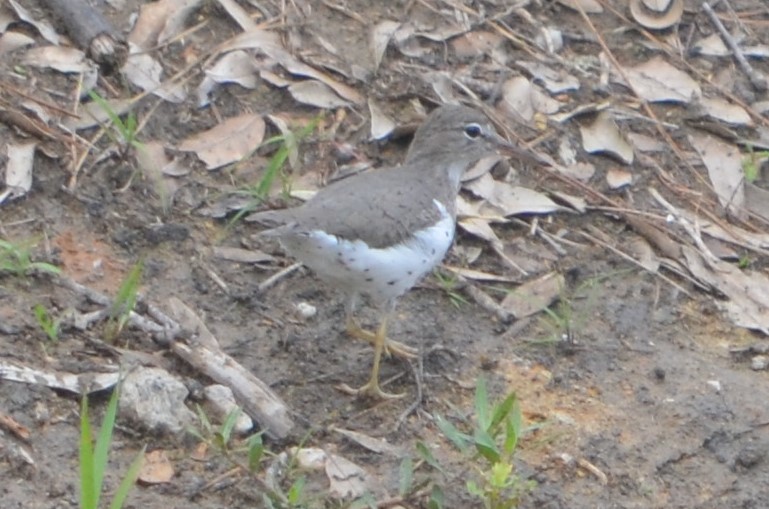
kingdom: Animalia
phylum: Chordata
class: Aves
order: Charadriiformes
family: Scolopacidae
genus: Actitis
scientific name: Actitis macularius
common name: Spotted sandpiper
